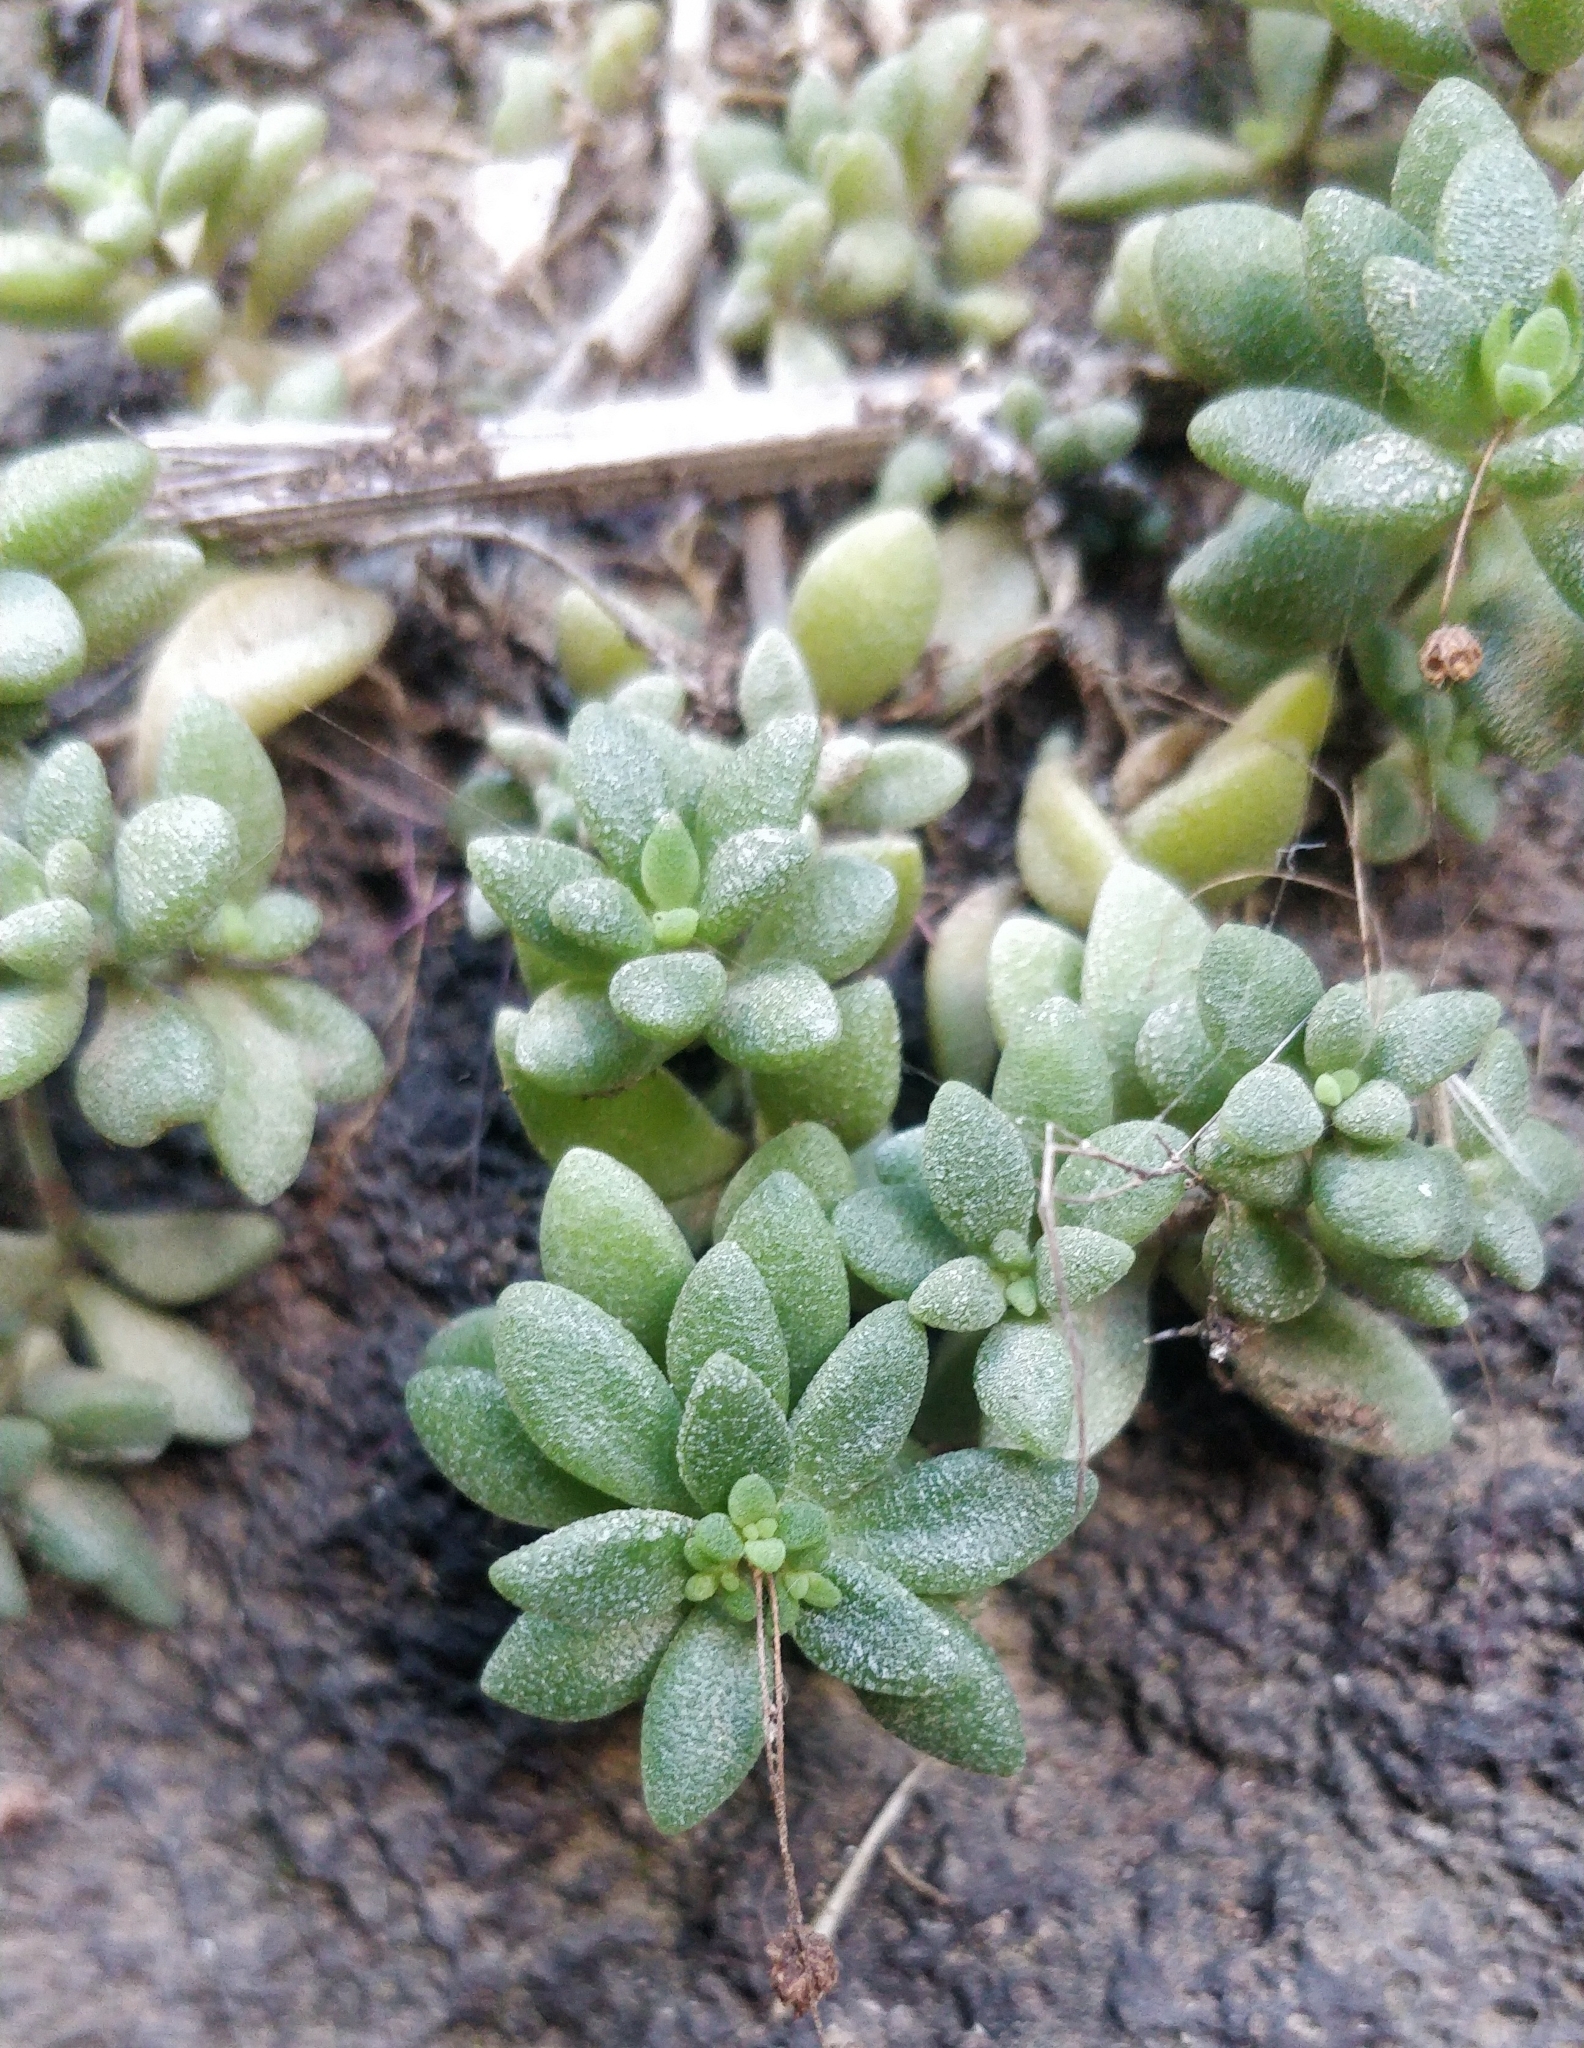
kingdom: Plantae
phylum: Tracheophyta
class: Magnoliopsida
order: Saxifragales
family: Crassulaceae
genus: Monanthes
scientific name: Monanthes laxiflora
